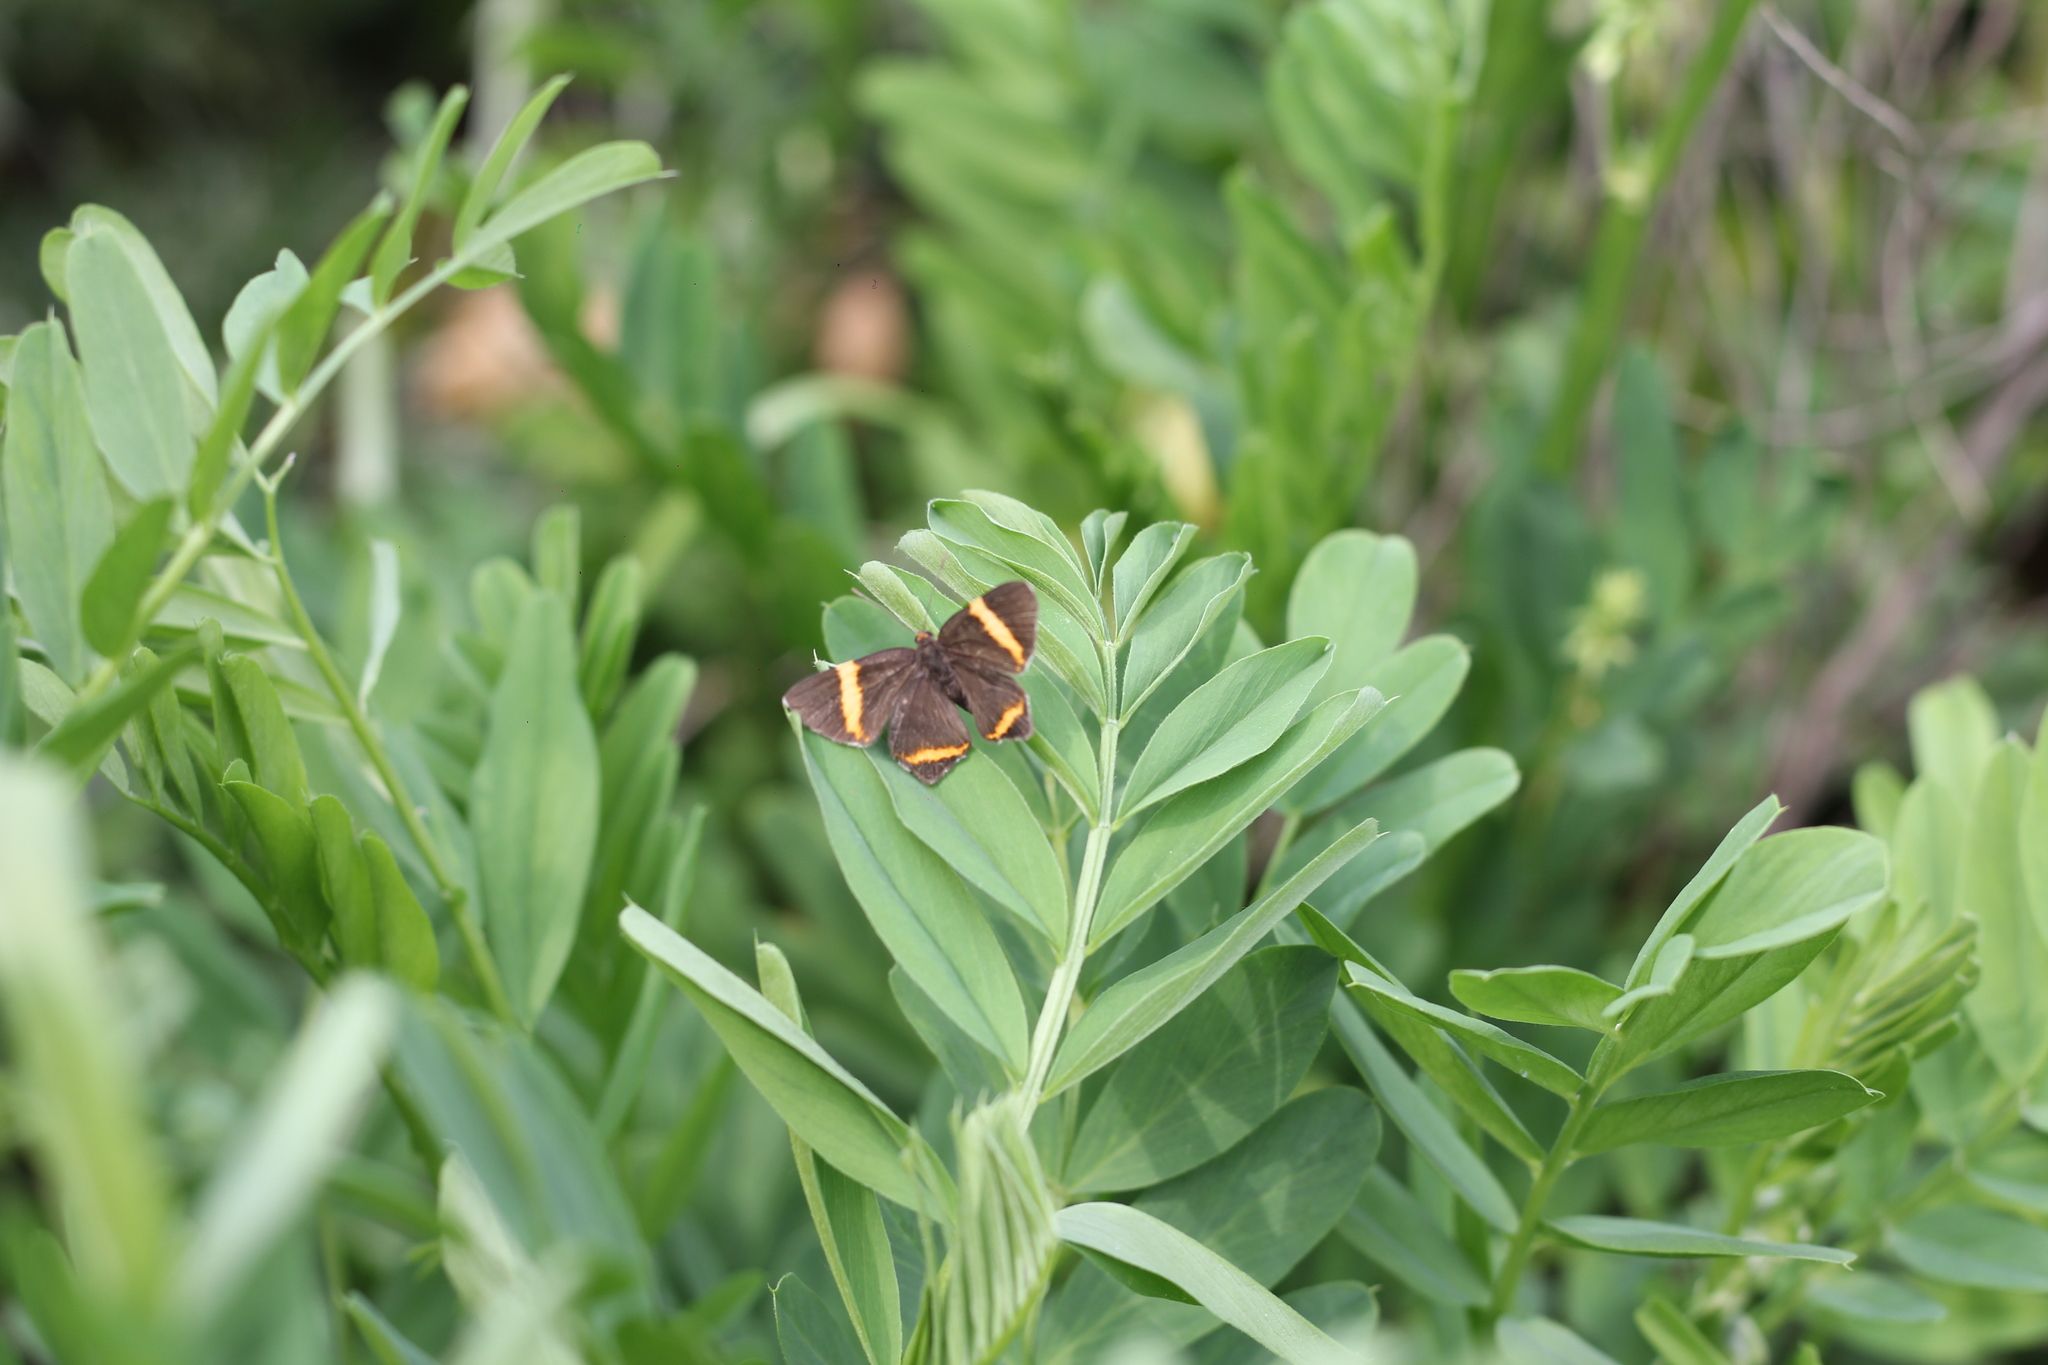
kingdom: Animalia
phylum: Arthropoda
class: Insecta
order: Lepidoptera
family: Riodinidae
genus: Riodina
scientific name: Riodina lysippoides
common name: Little dancer metalmark
